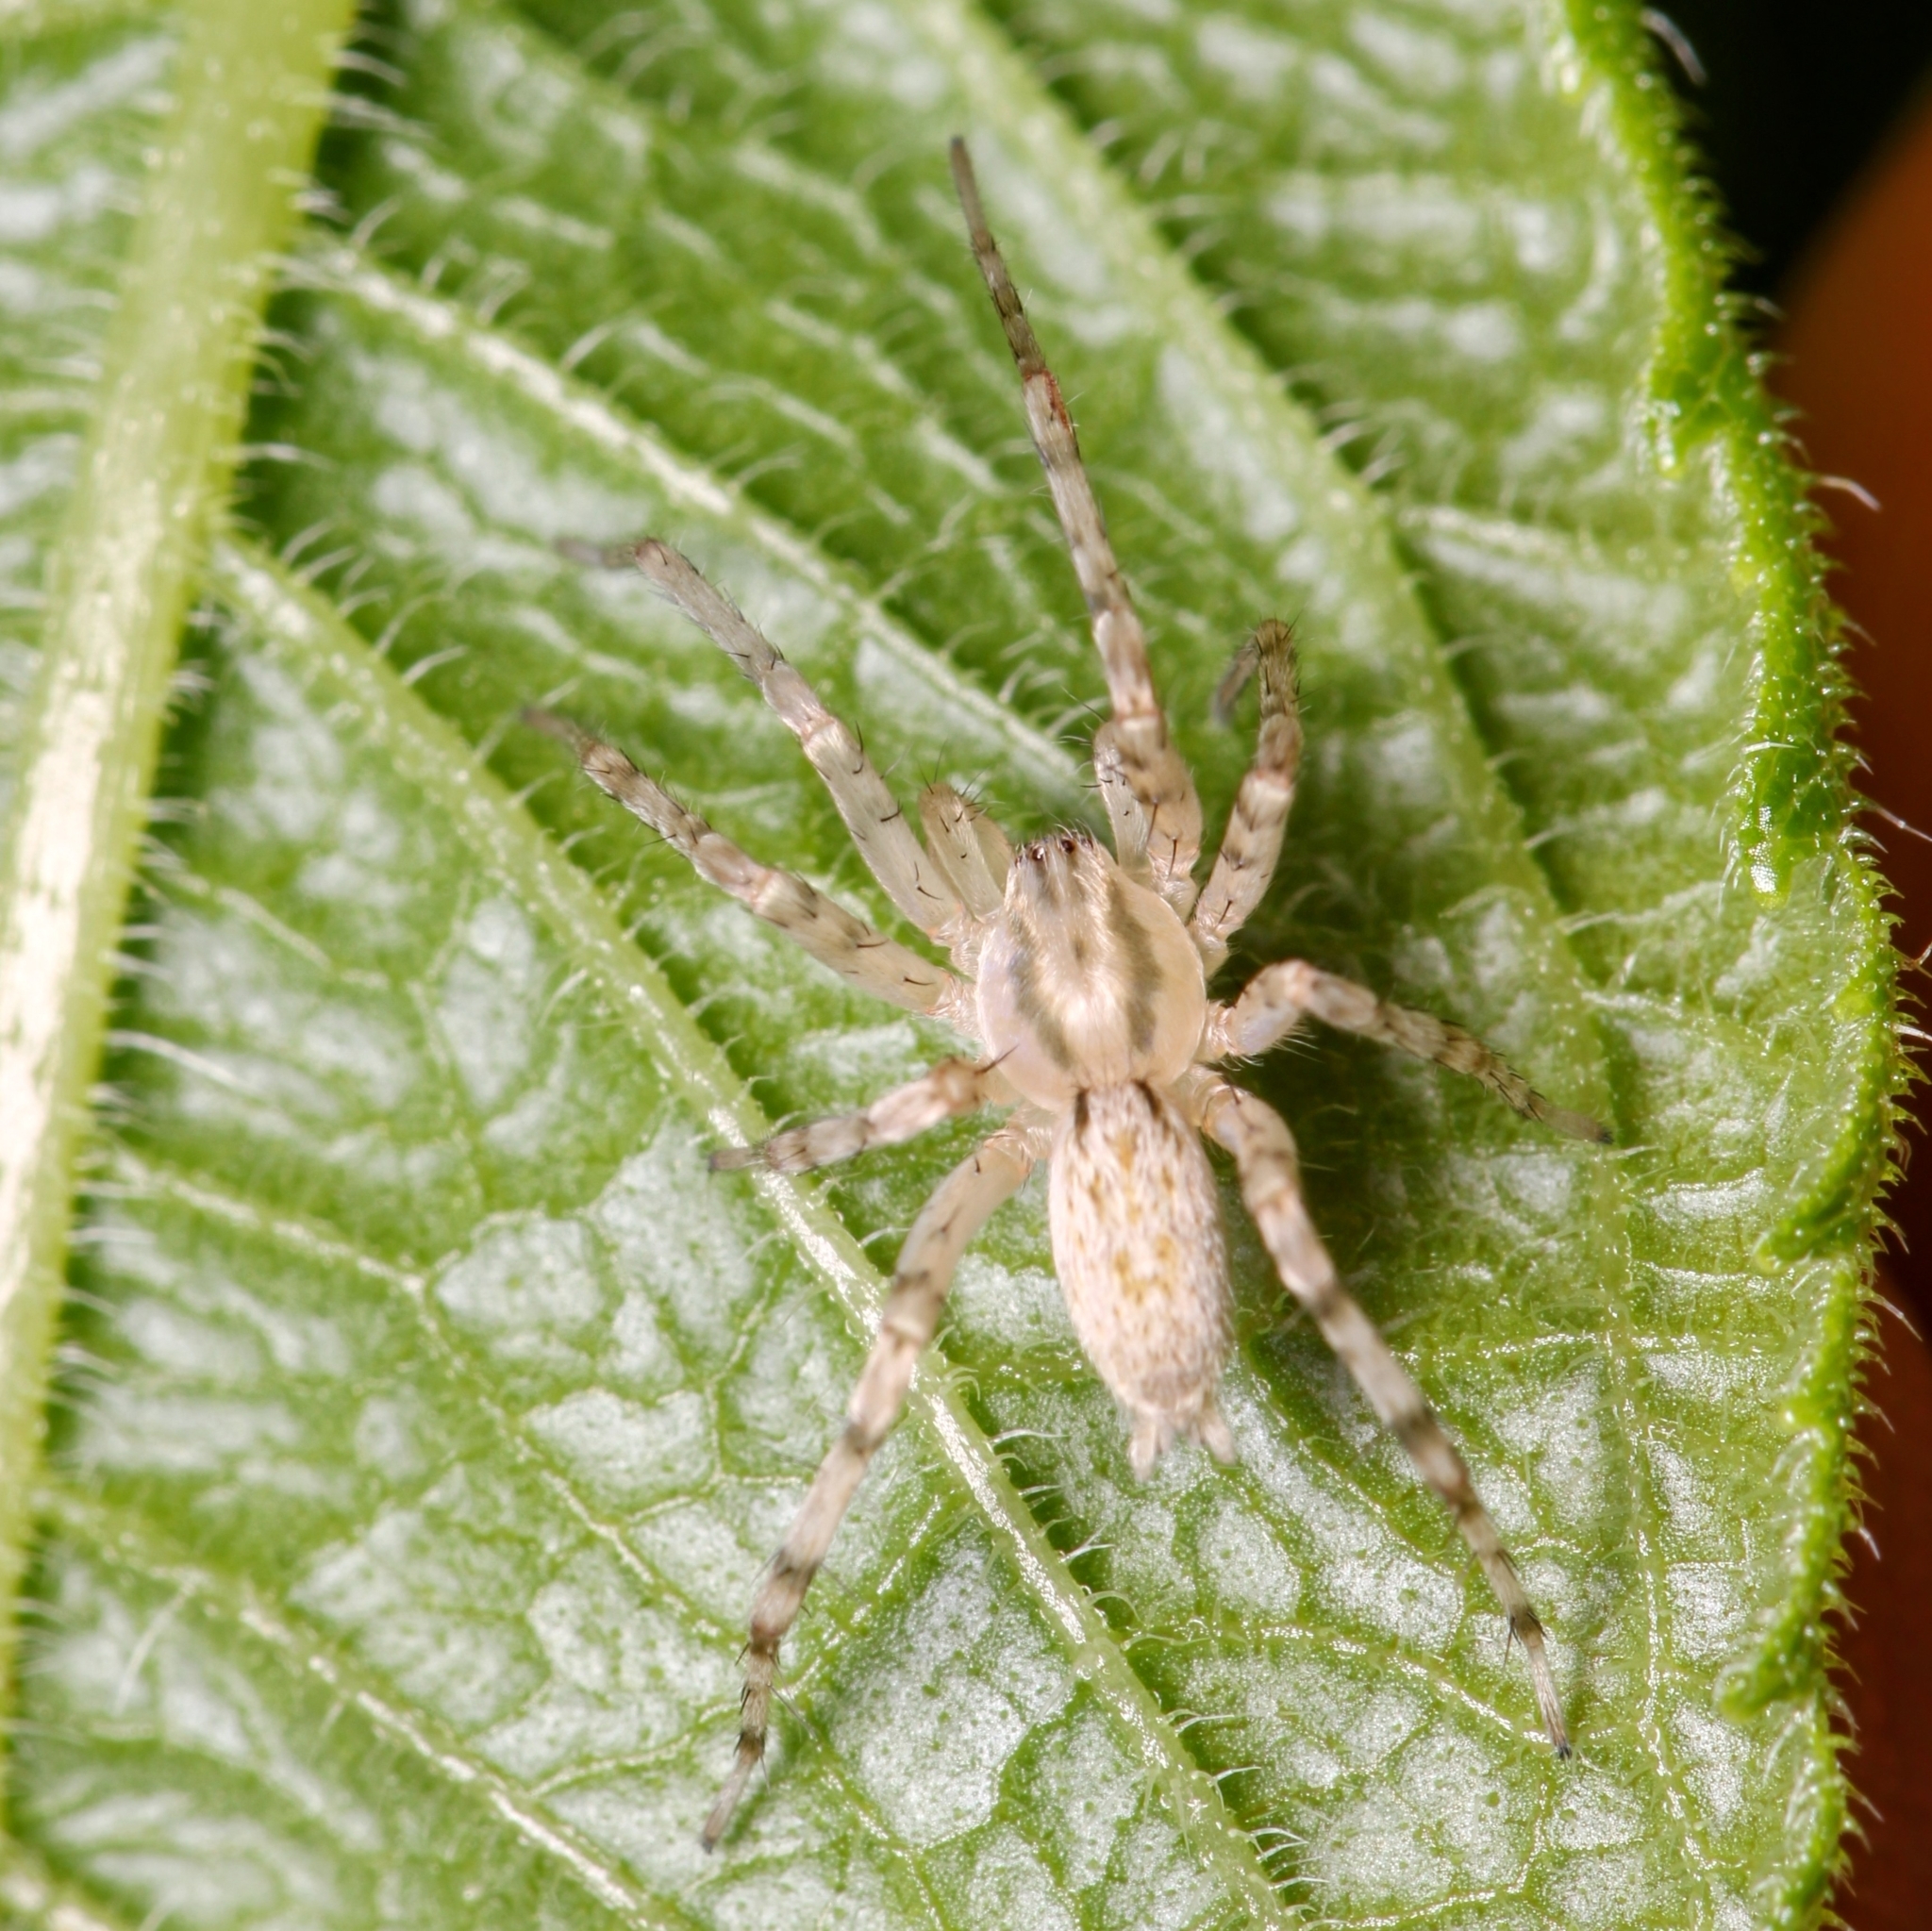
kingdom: Animalia
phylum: Arthropoda
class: Arachnida
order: Araneae
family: Anyphaenidae
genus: Anyphaena
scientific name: Anyphaena
